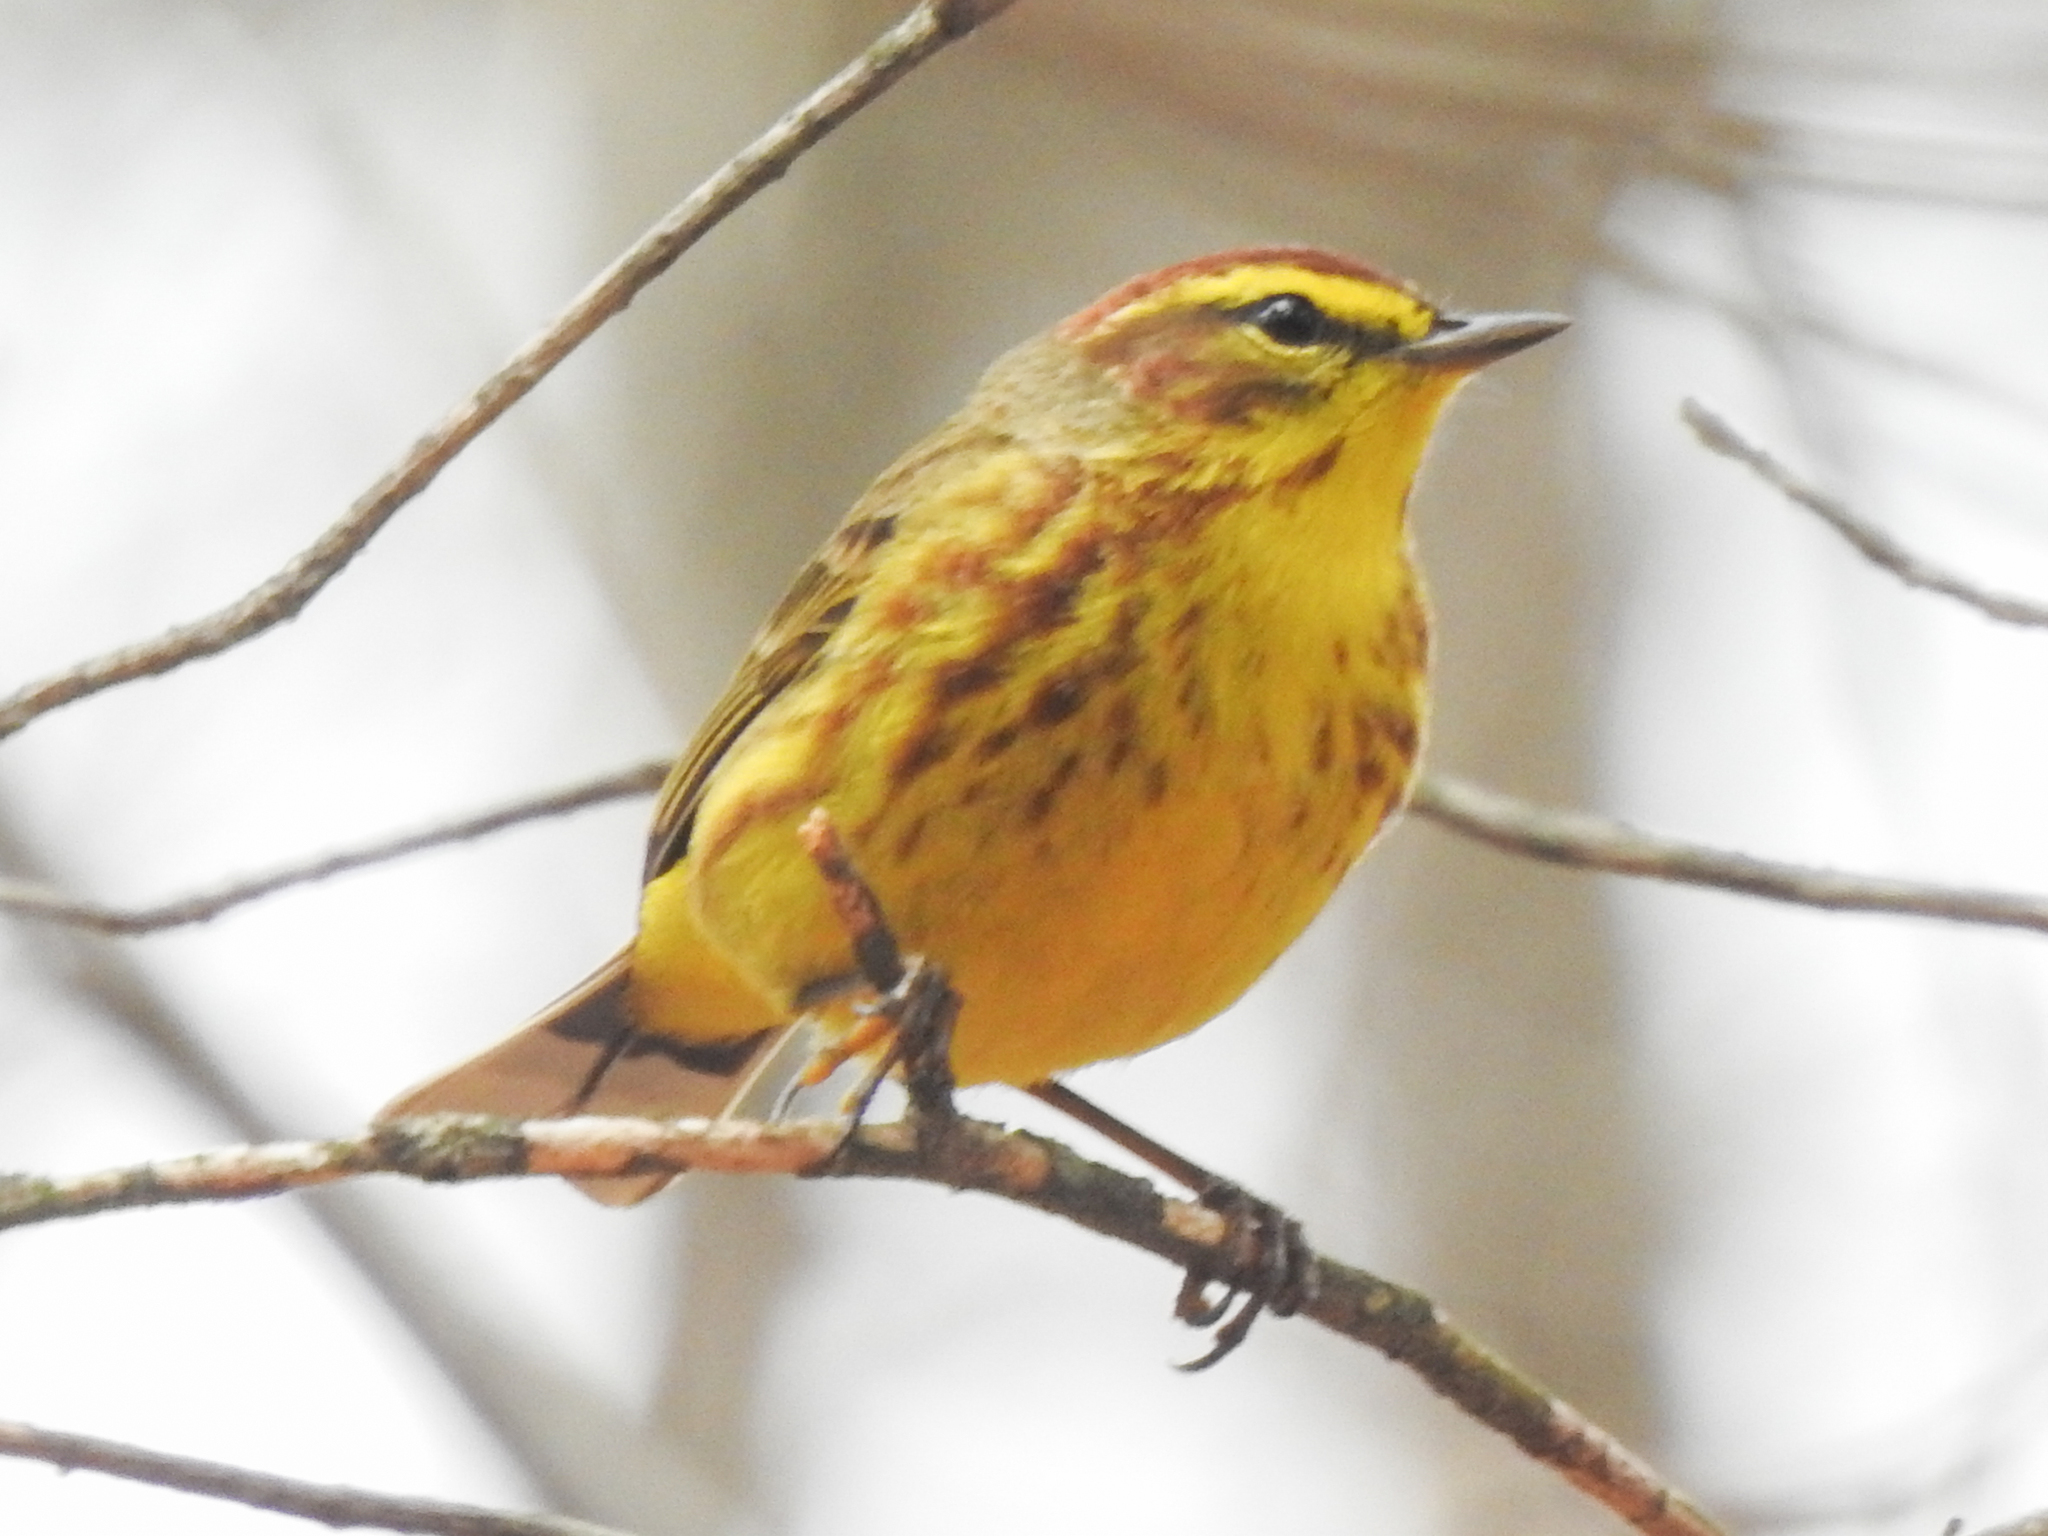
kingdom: Animalia
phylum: Chordata
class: Aves
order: Passeriformes
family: Parulidae
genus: Setophaga
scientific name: Setophaga palmarum
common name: Palm warbler
